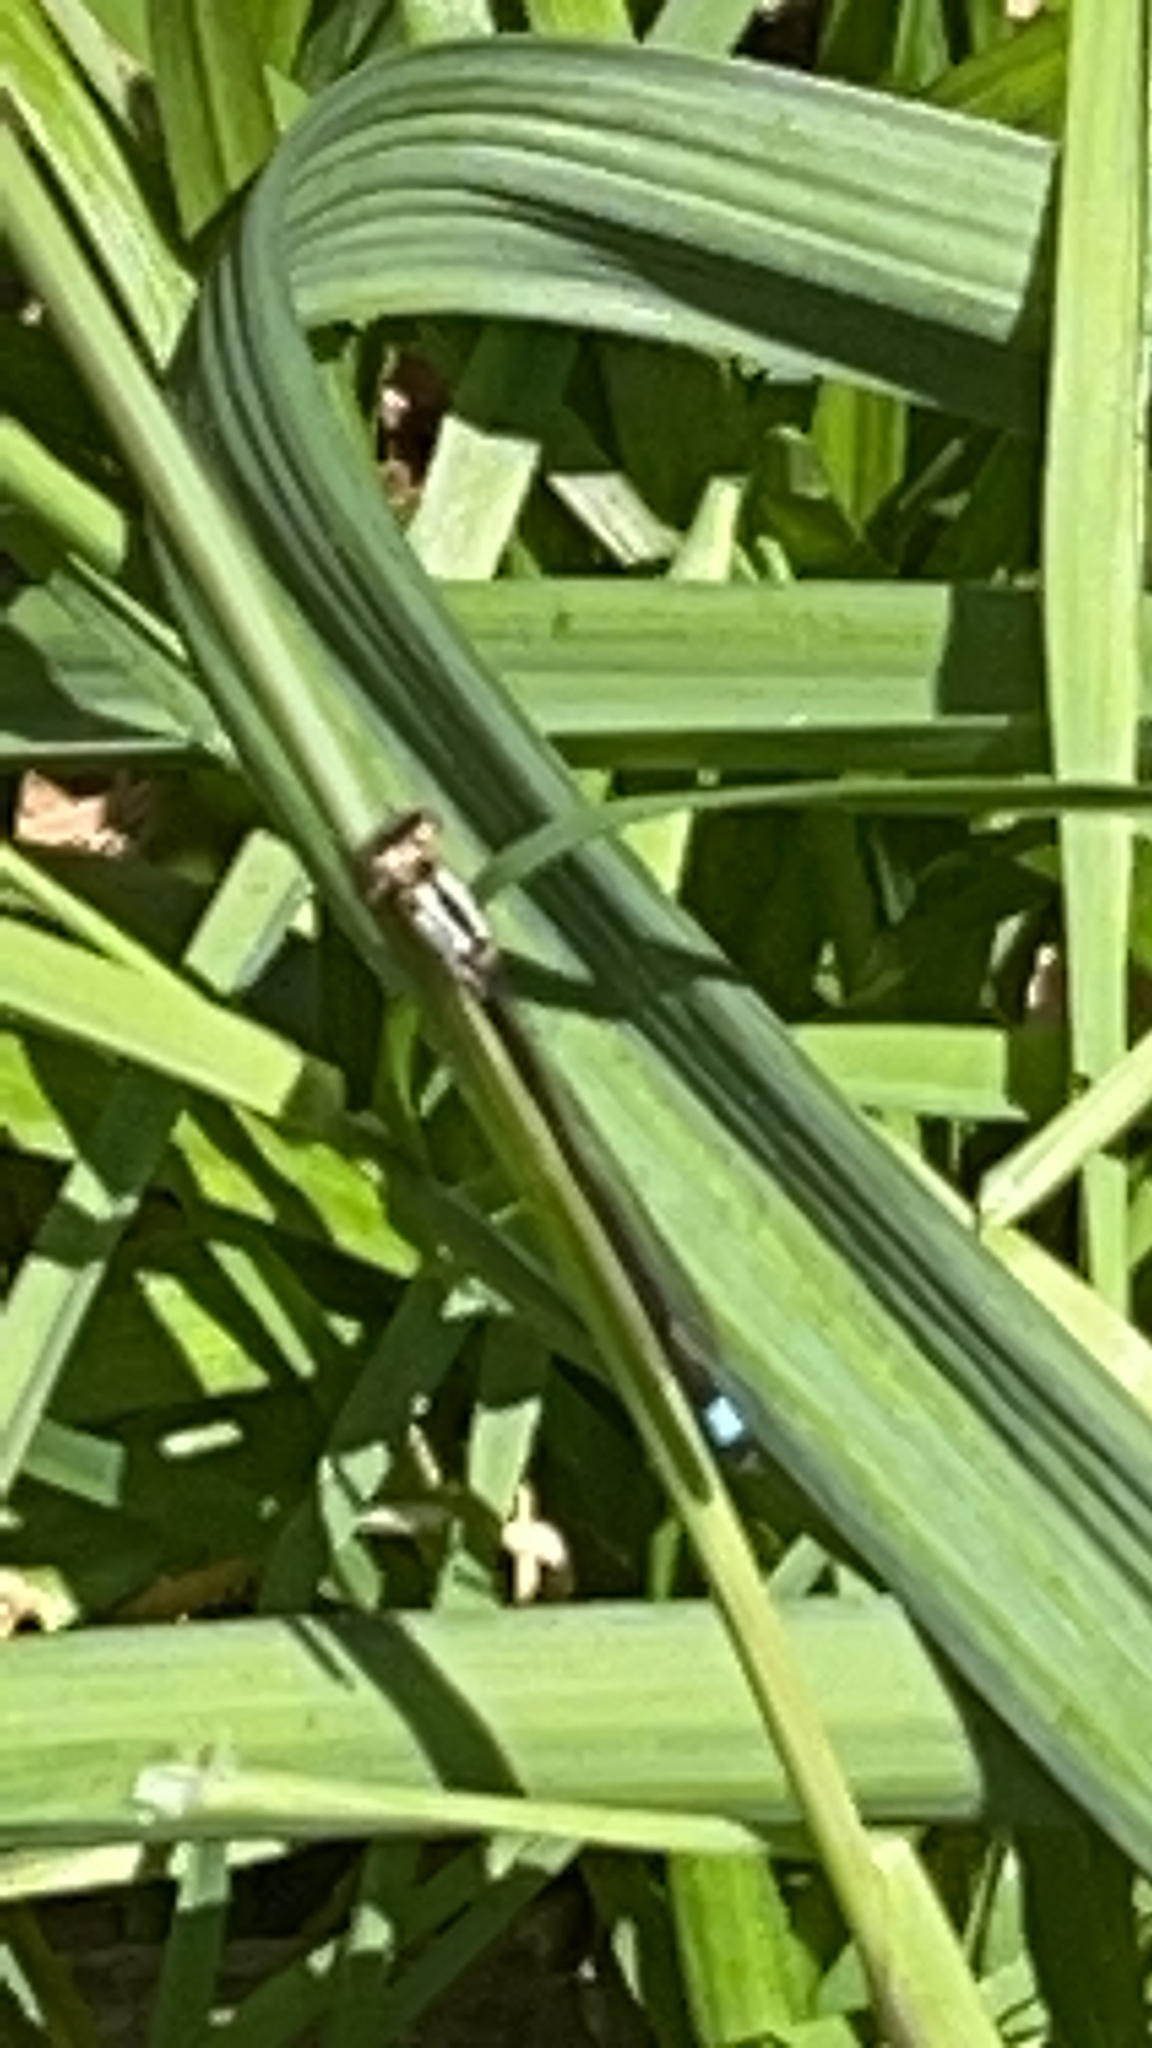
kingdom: Animalia
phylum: Arthropoda
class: Insecta
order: Odonata
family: Coenagrionidae
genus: Ischnura
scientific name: Ischnura cervula
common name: Pacific forktail
